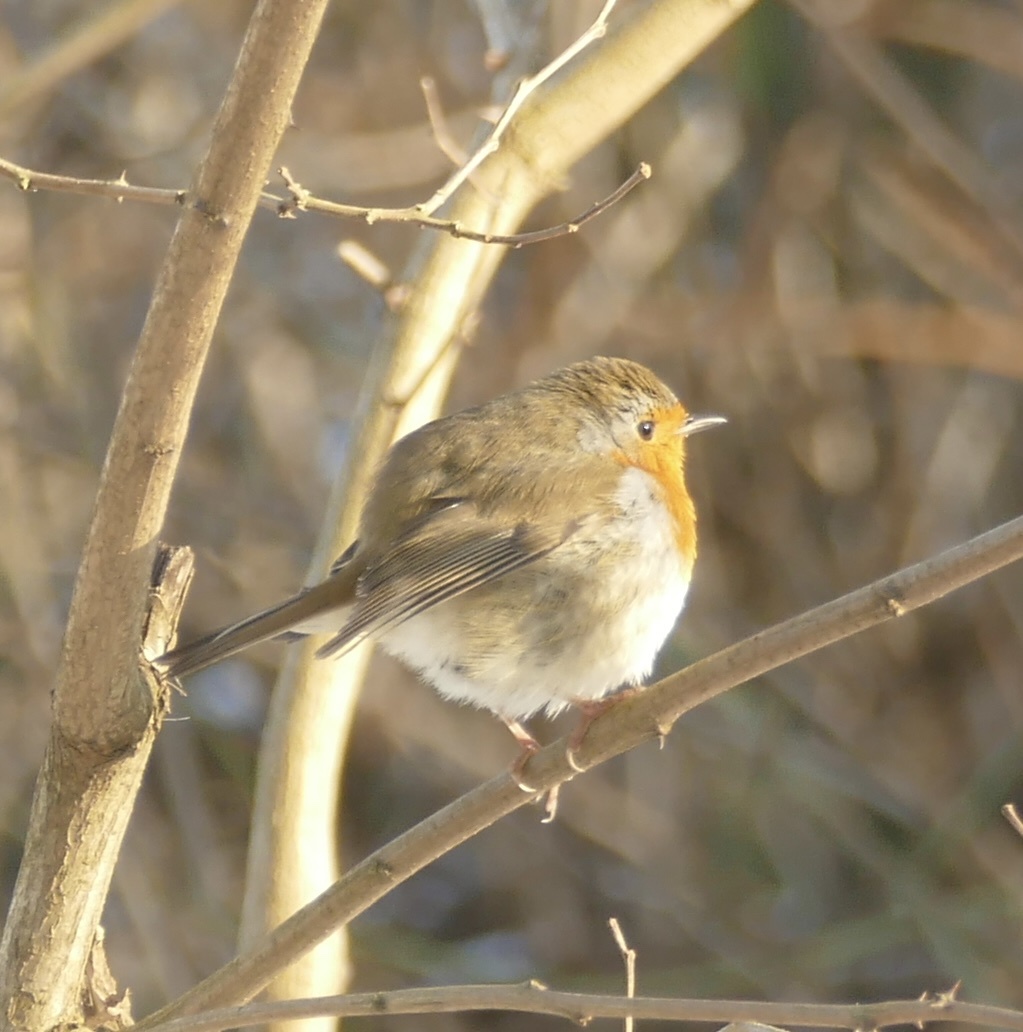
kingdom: Animalia
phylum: Chordata
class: Aves
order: Passeriformes
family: Muscicapidae
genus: Erithacus
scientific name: Erithacus rubecula
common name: European robin
